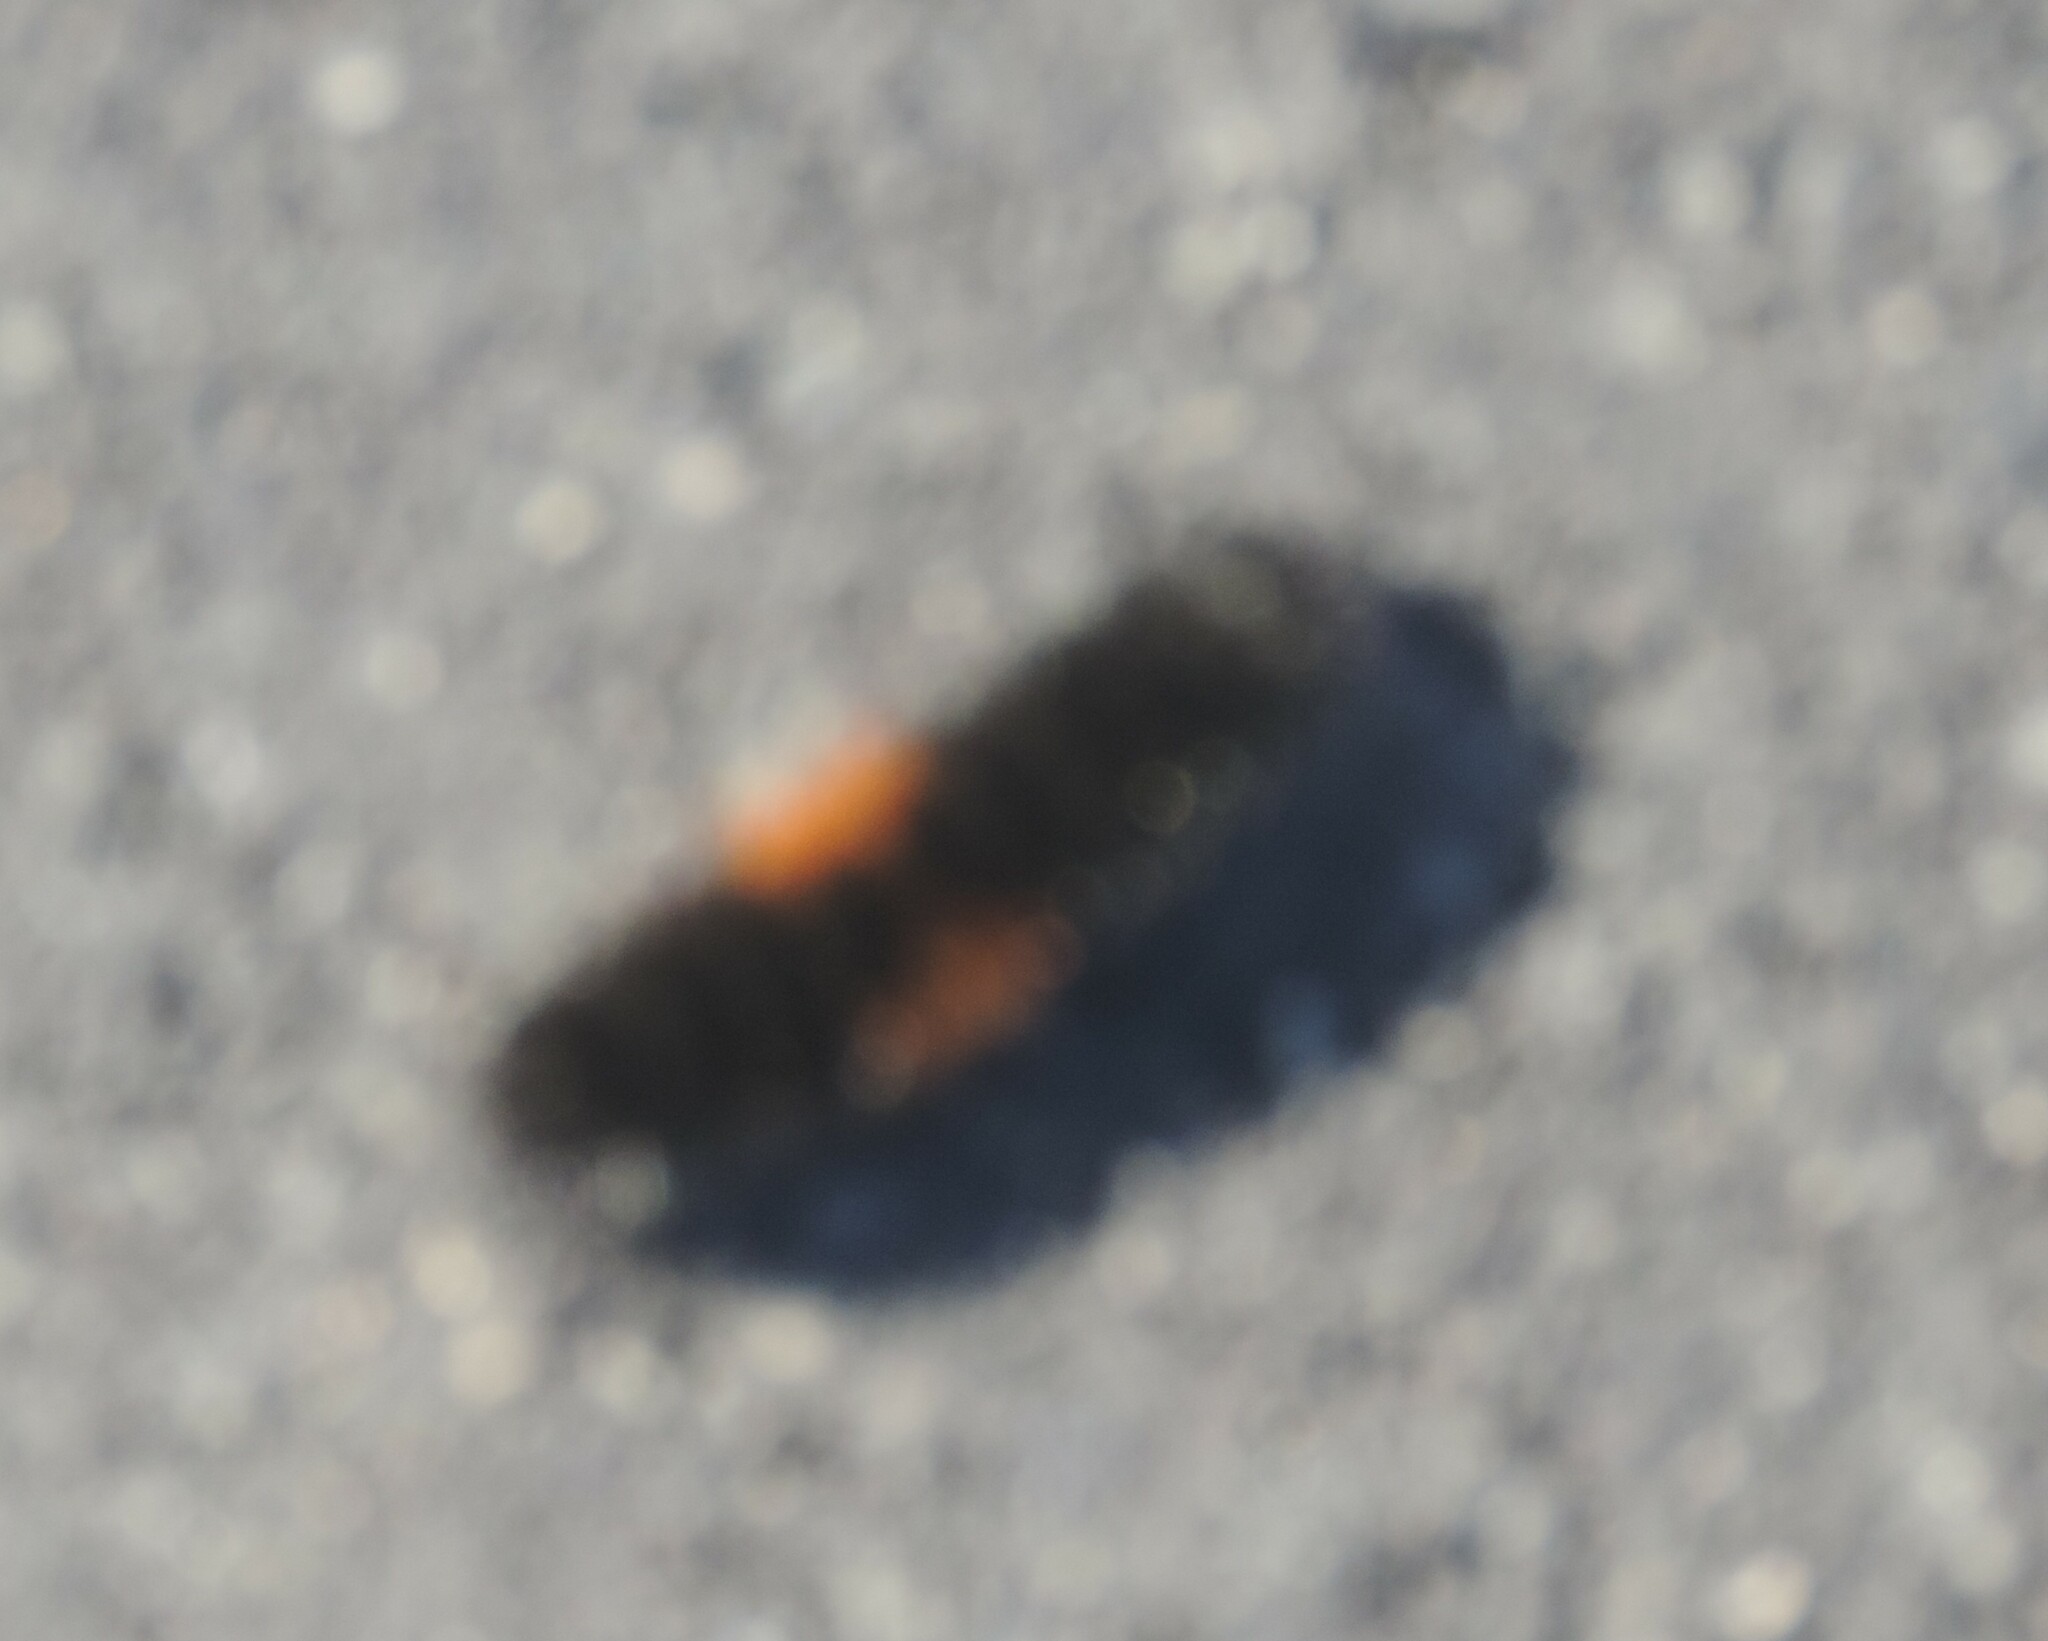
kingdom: Animalia
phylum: Arthropoda
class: Insecta
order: Lepidoptera
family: Erebidae
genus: Pyrrharctia
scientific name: Pyrrharctia isabella
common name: Isabella tiger moth
